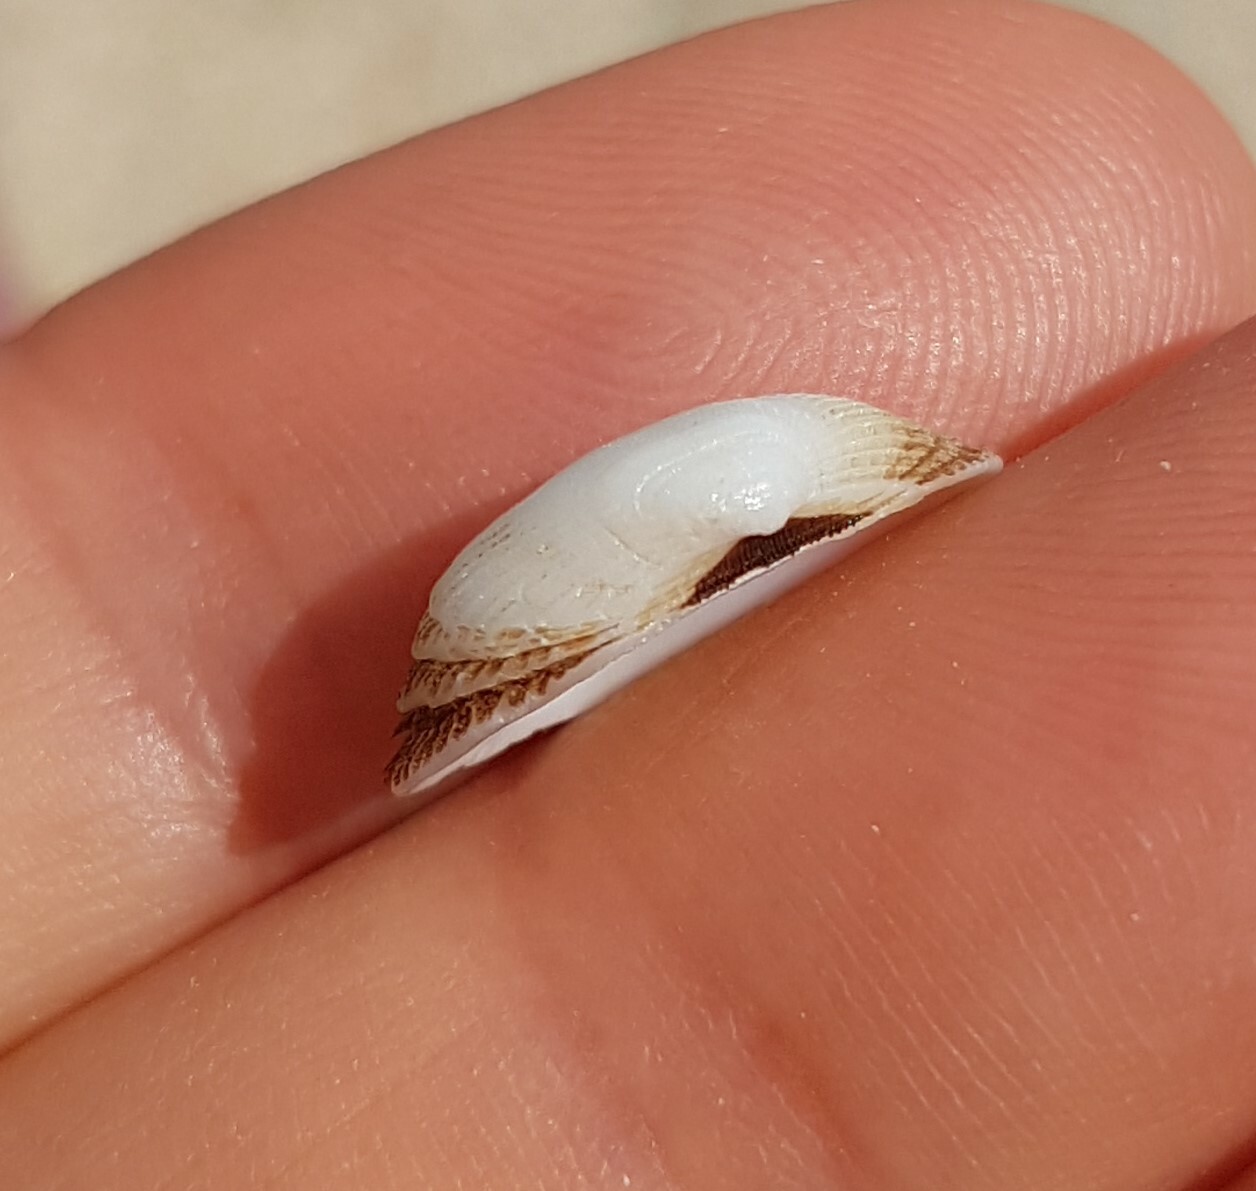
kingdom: Animalia
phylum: Mollusca
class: Bivalvia
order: Arcida
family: Noetiidae
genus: Striarca
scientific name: Striarca lactea
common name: Milky-white ark
